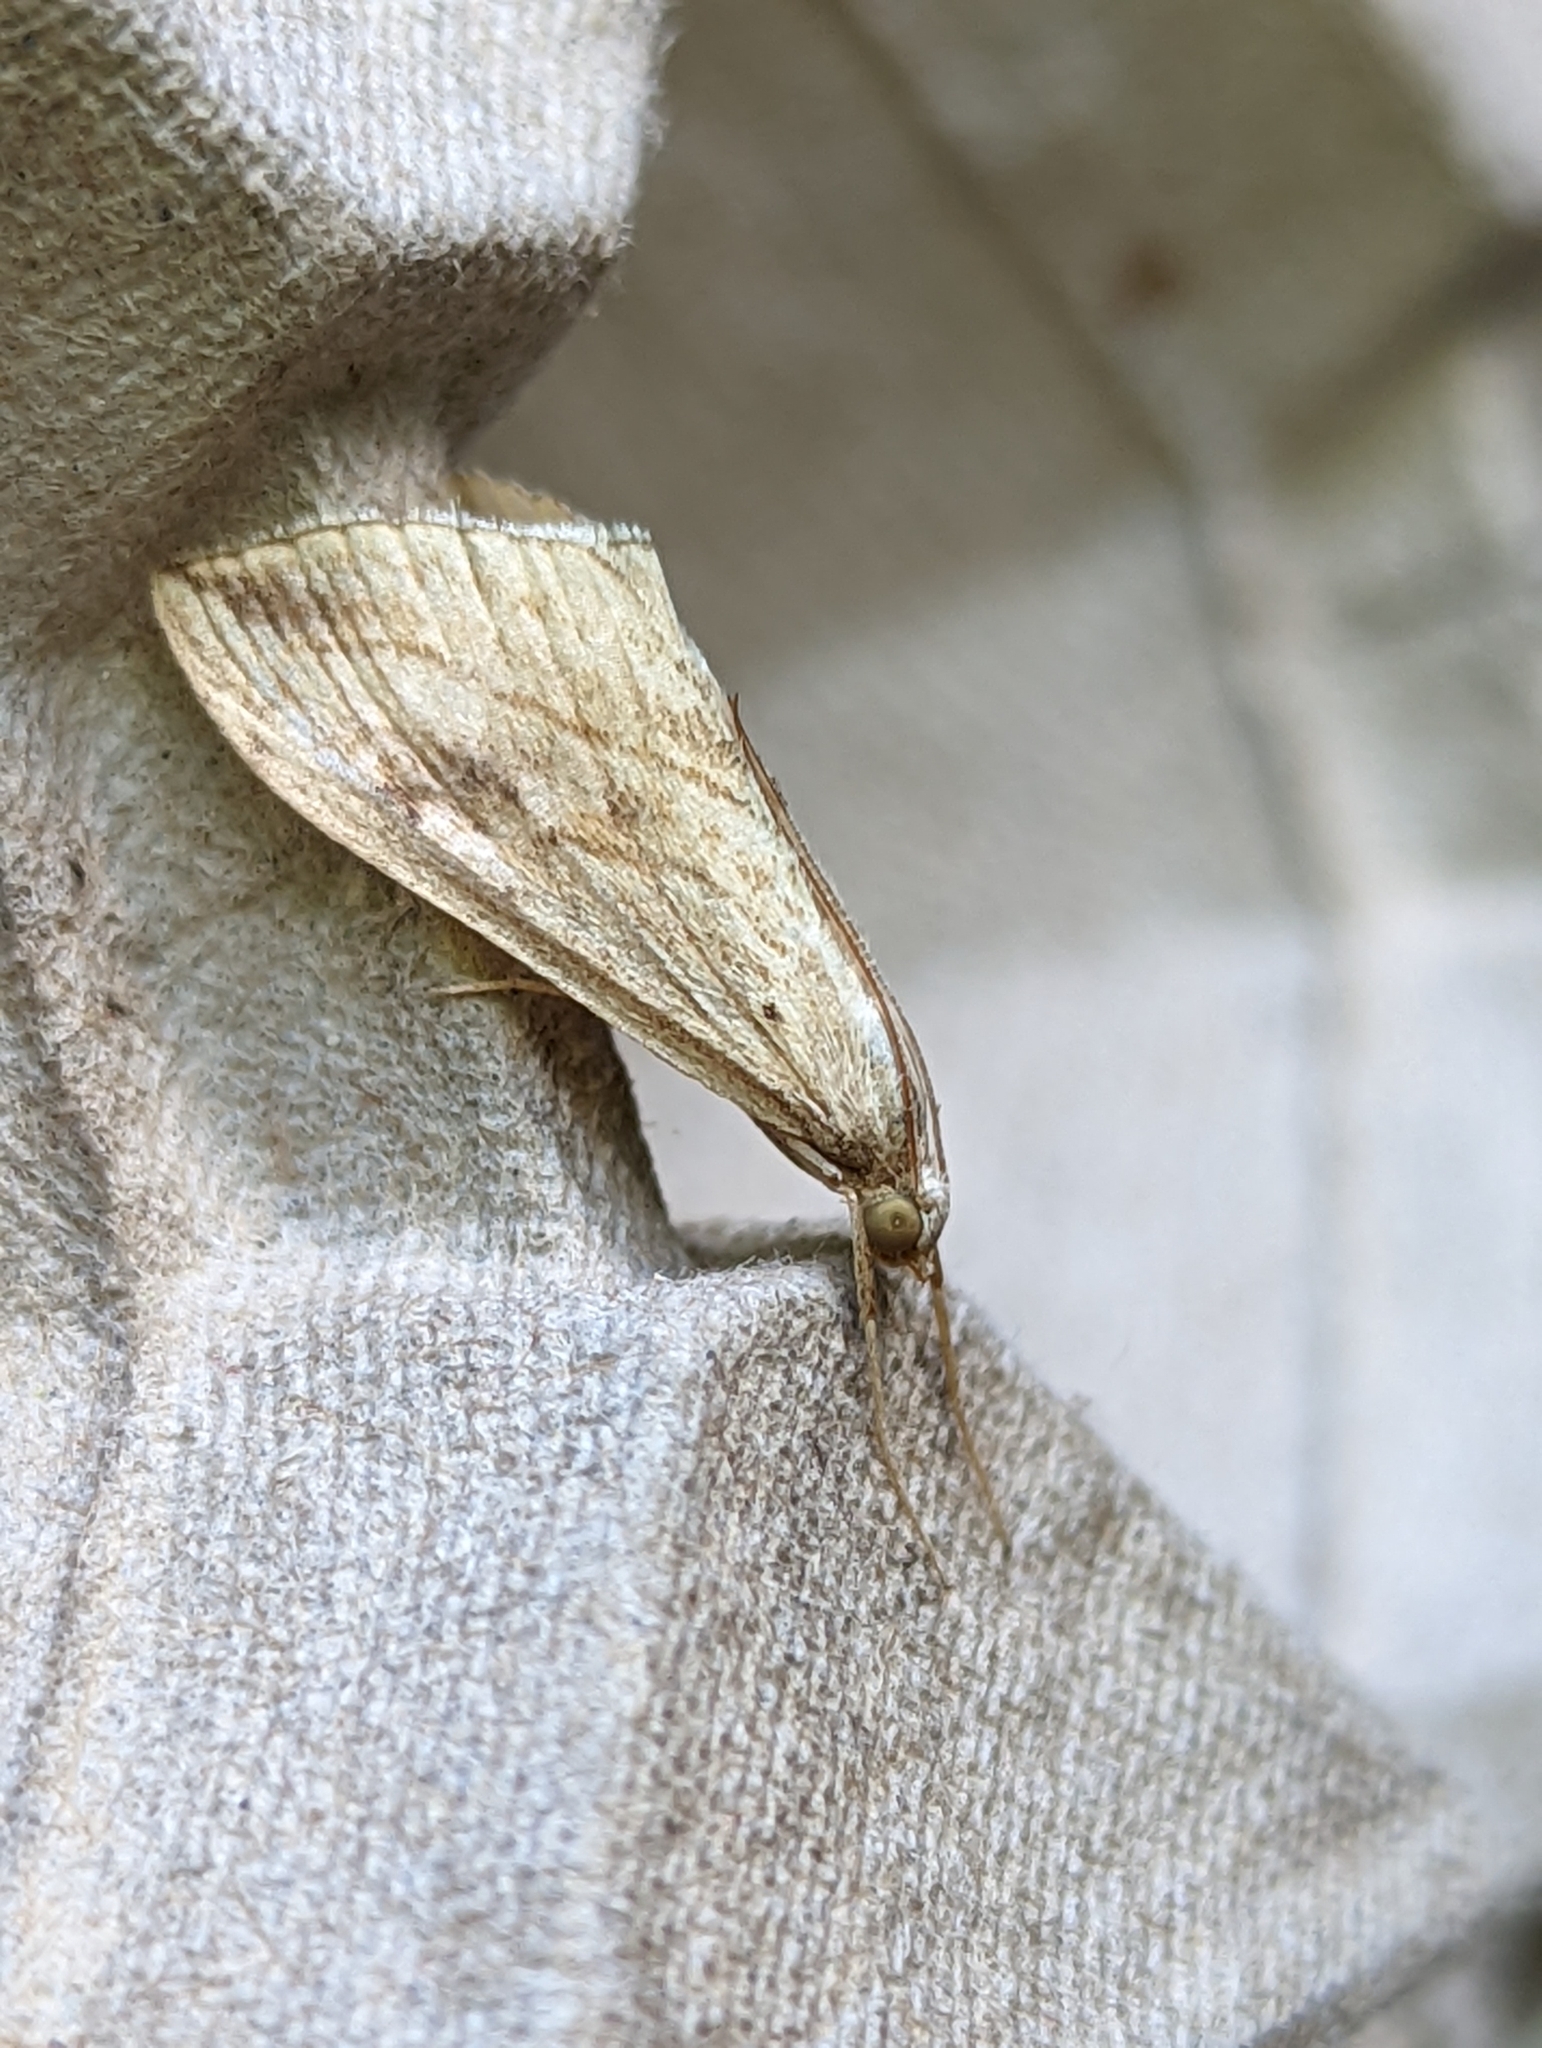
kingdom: Animalia
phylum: Arthropoda
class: Insecta
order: Lepidoptera
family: Crambidae
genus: Evergestis
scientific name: Evergestis forficalis
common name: Garden pebble
